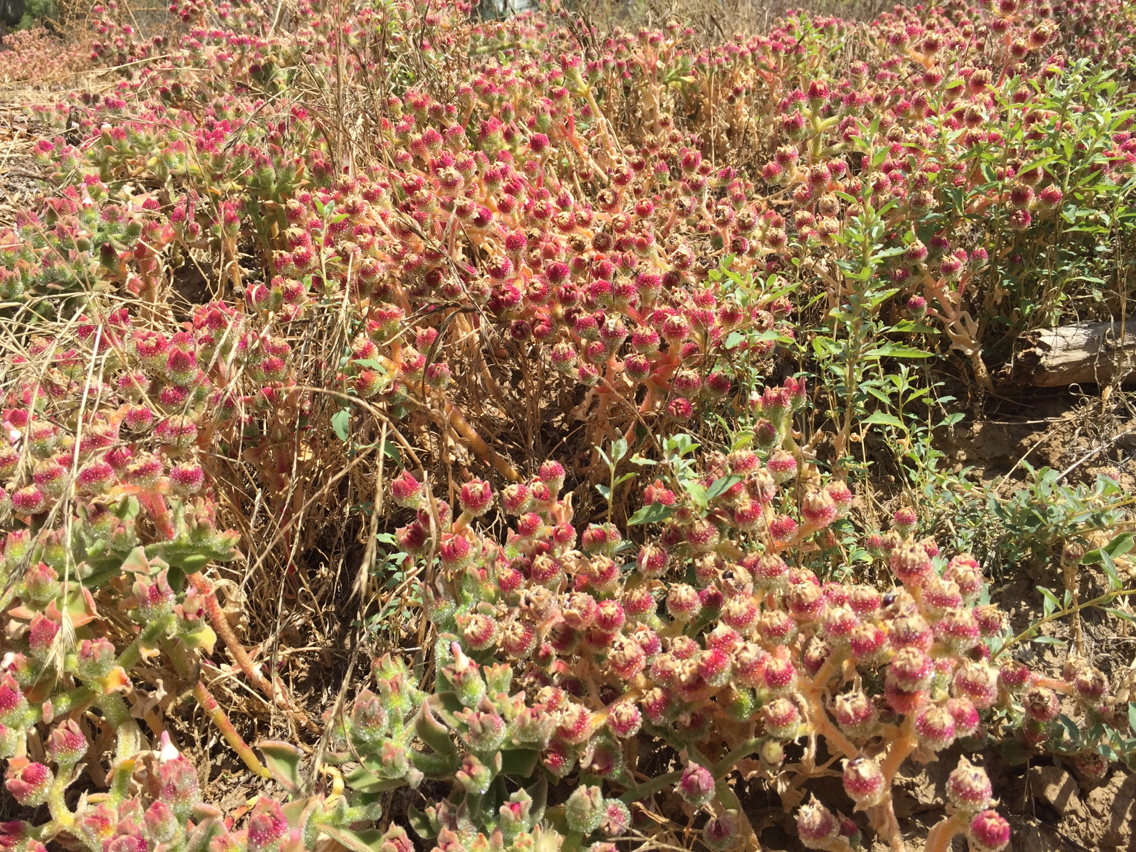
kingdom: Plantae
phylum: Tracheophyta
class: Magnoliopsida
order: Caryophyllales
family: Aizoaceae
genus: Mesembryanthemum
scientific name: Mesembryanthemum crystallinum
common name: Common iceplant
